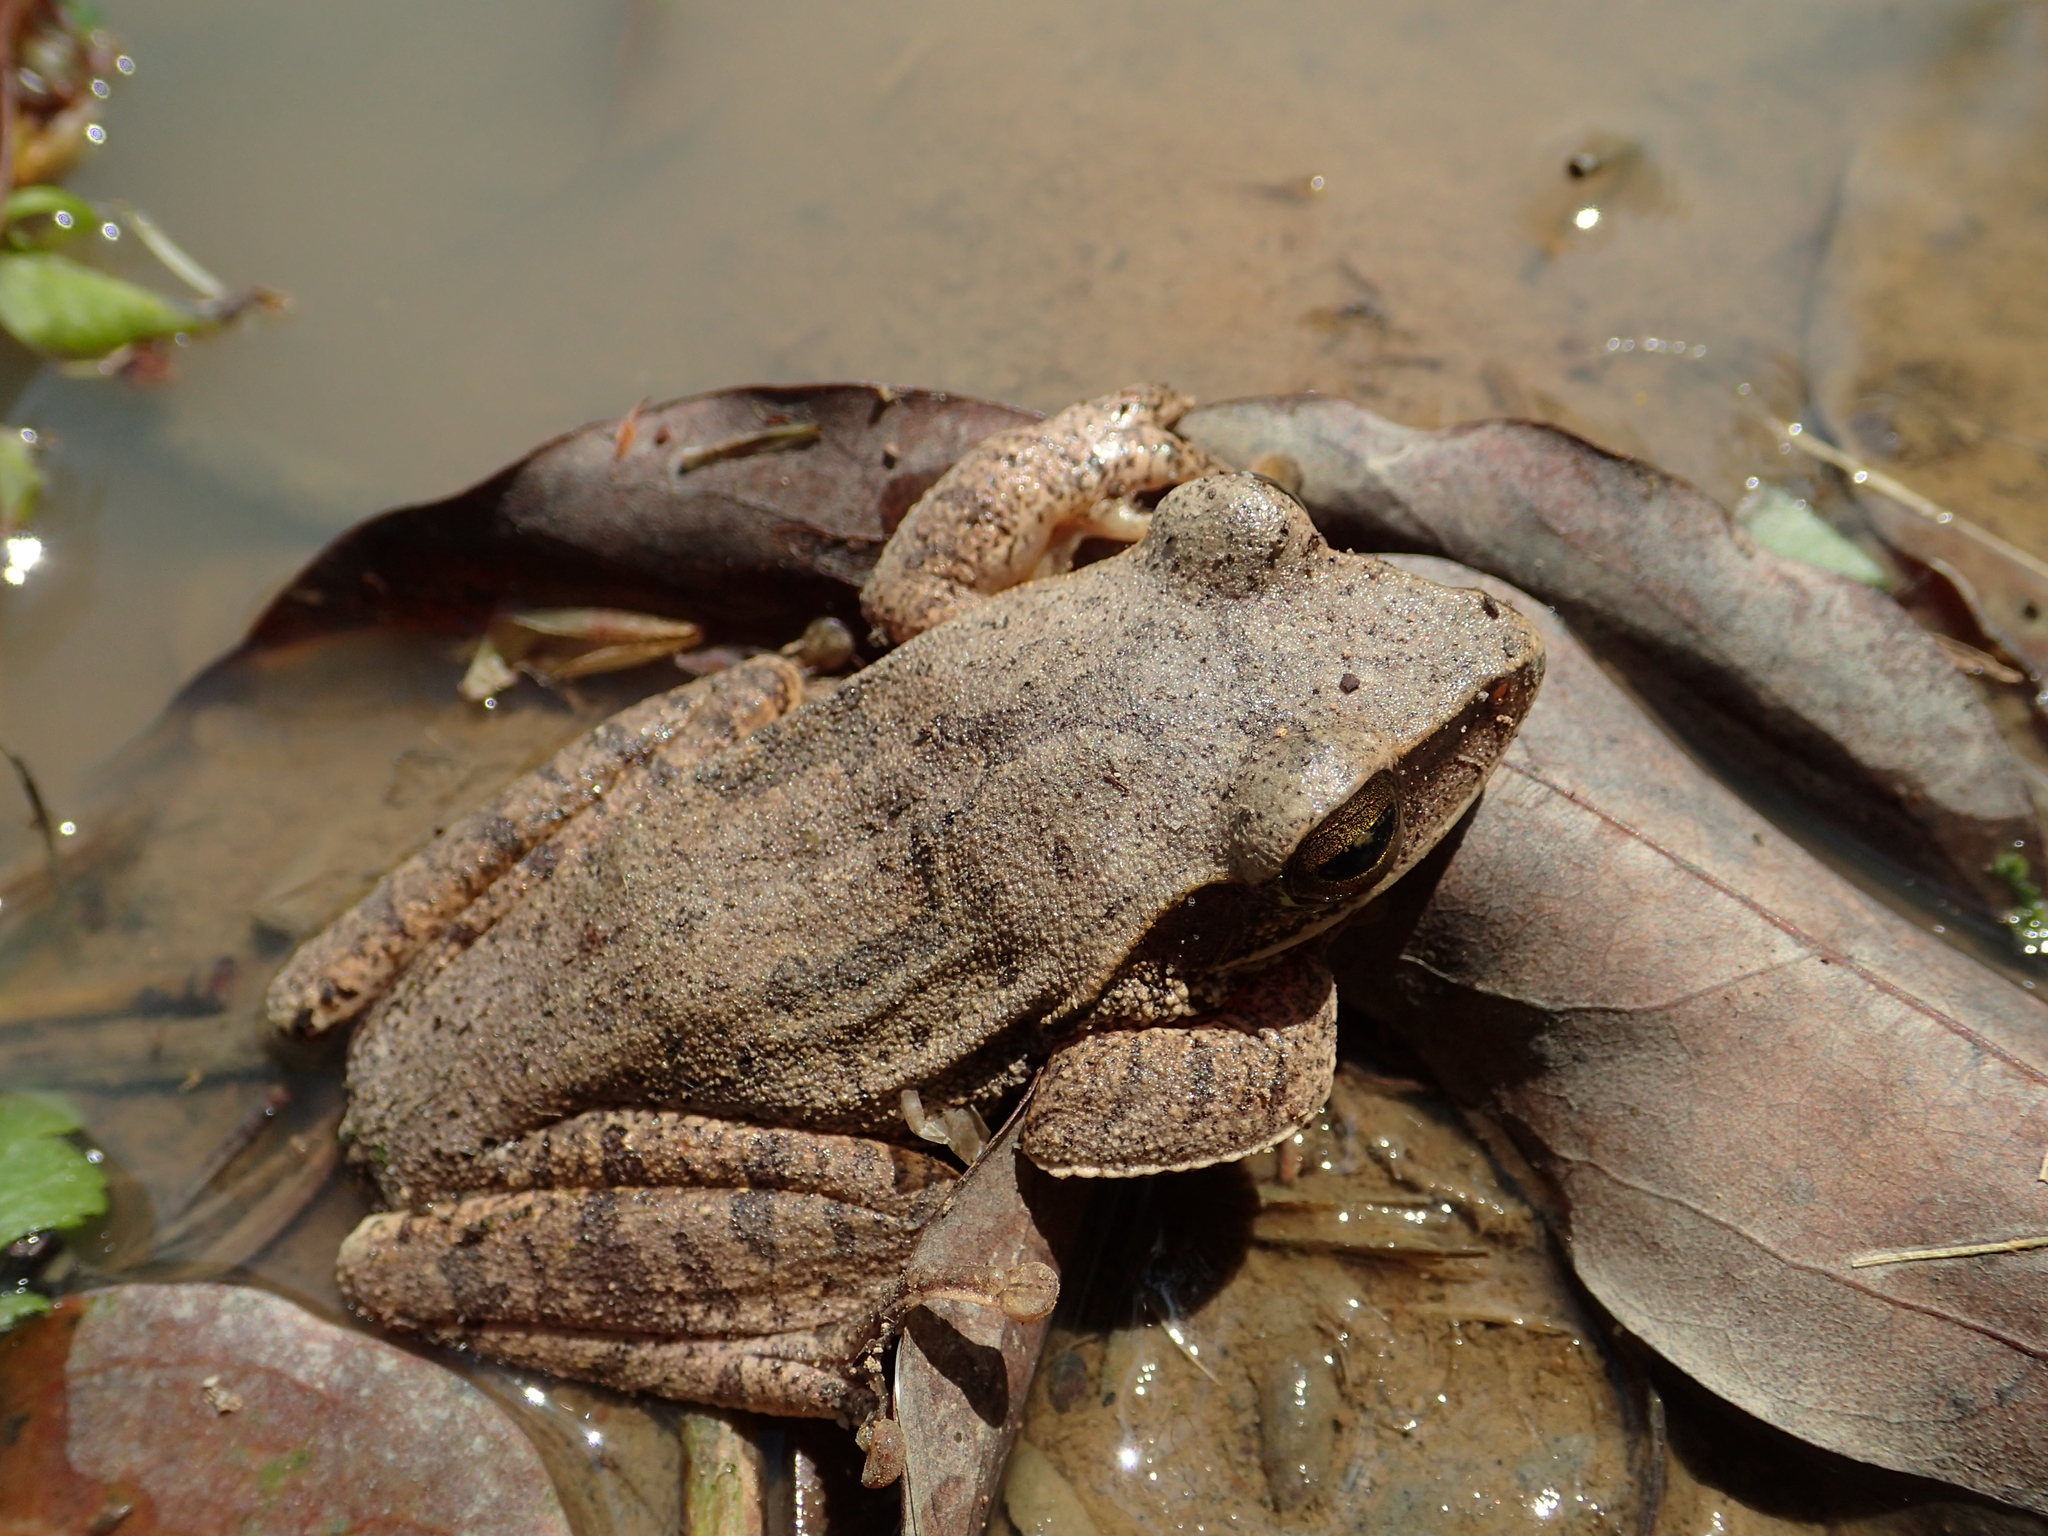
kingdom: Animalia
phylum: Chordata
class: Amphibia
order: Anura
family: Rhacophoridae
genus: Polypedates
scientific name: Polypedates megacephalus
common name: Hong kong whipping frog
